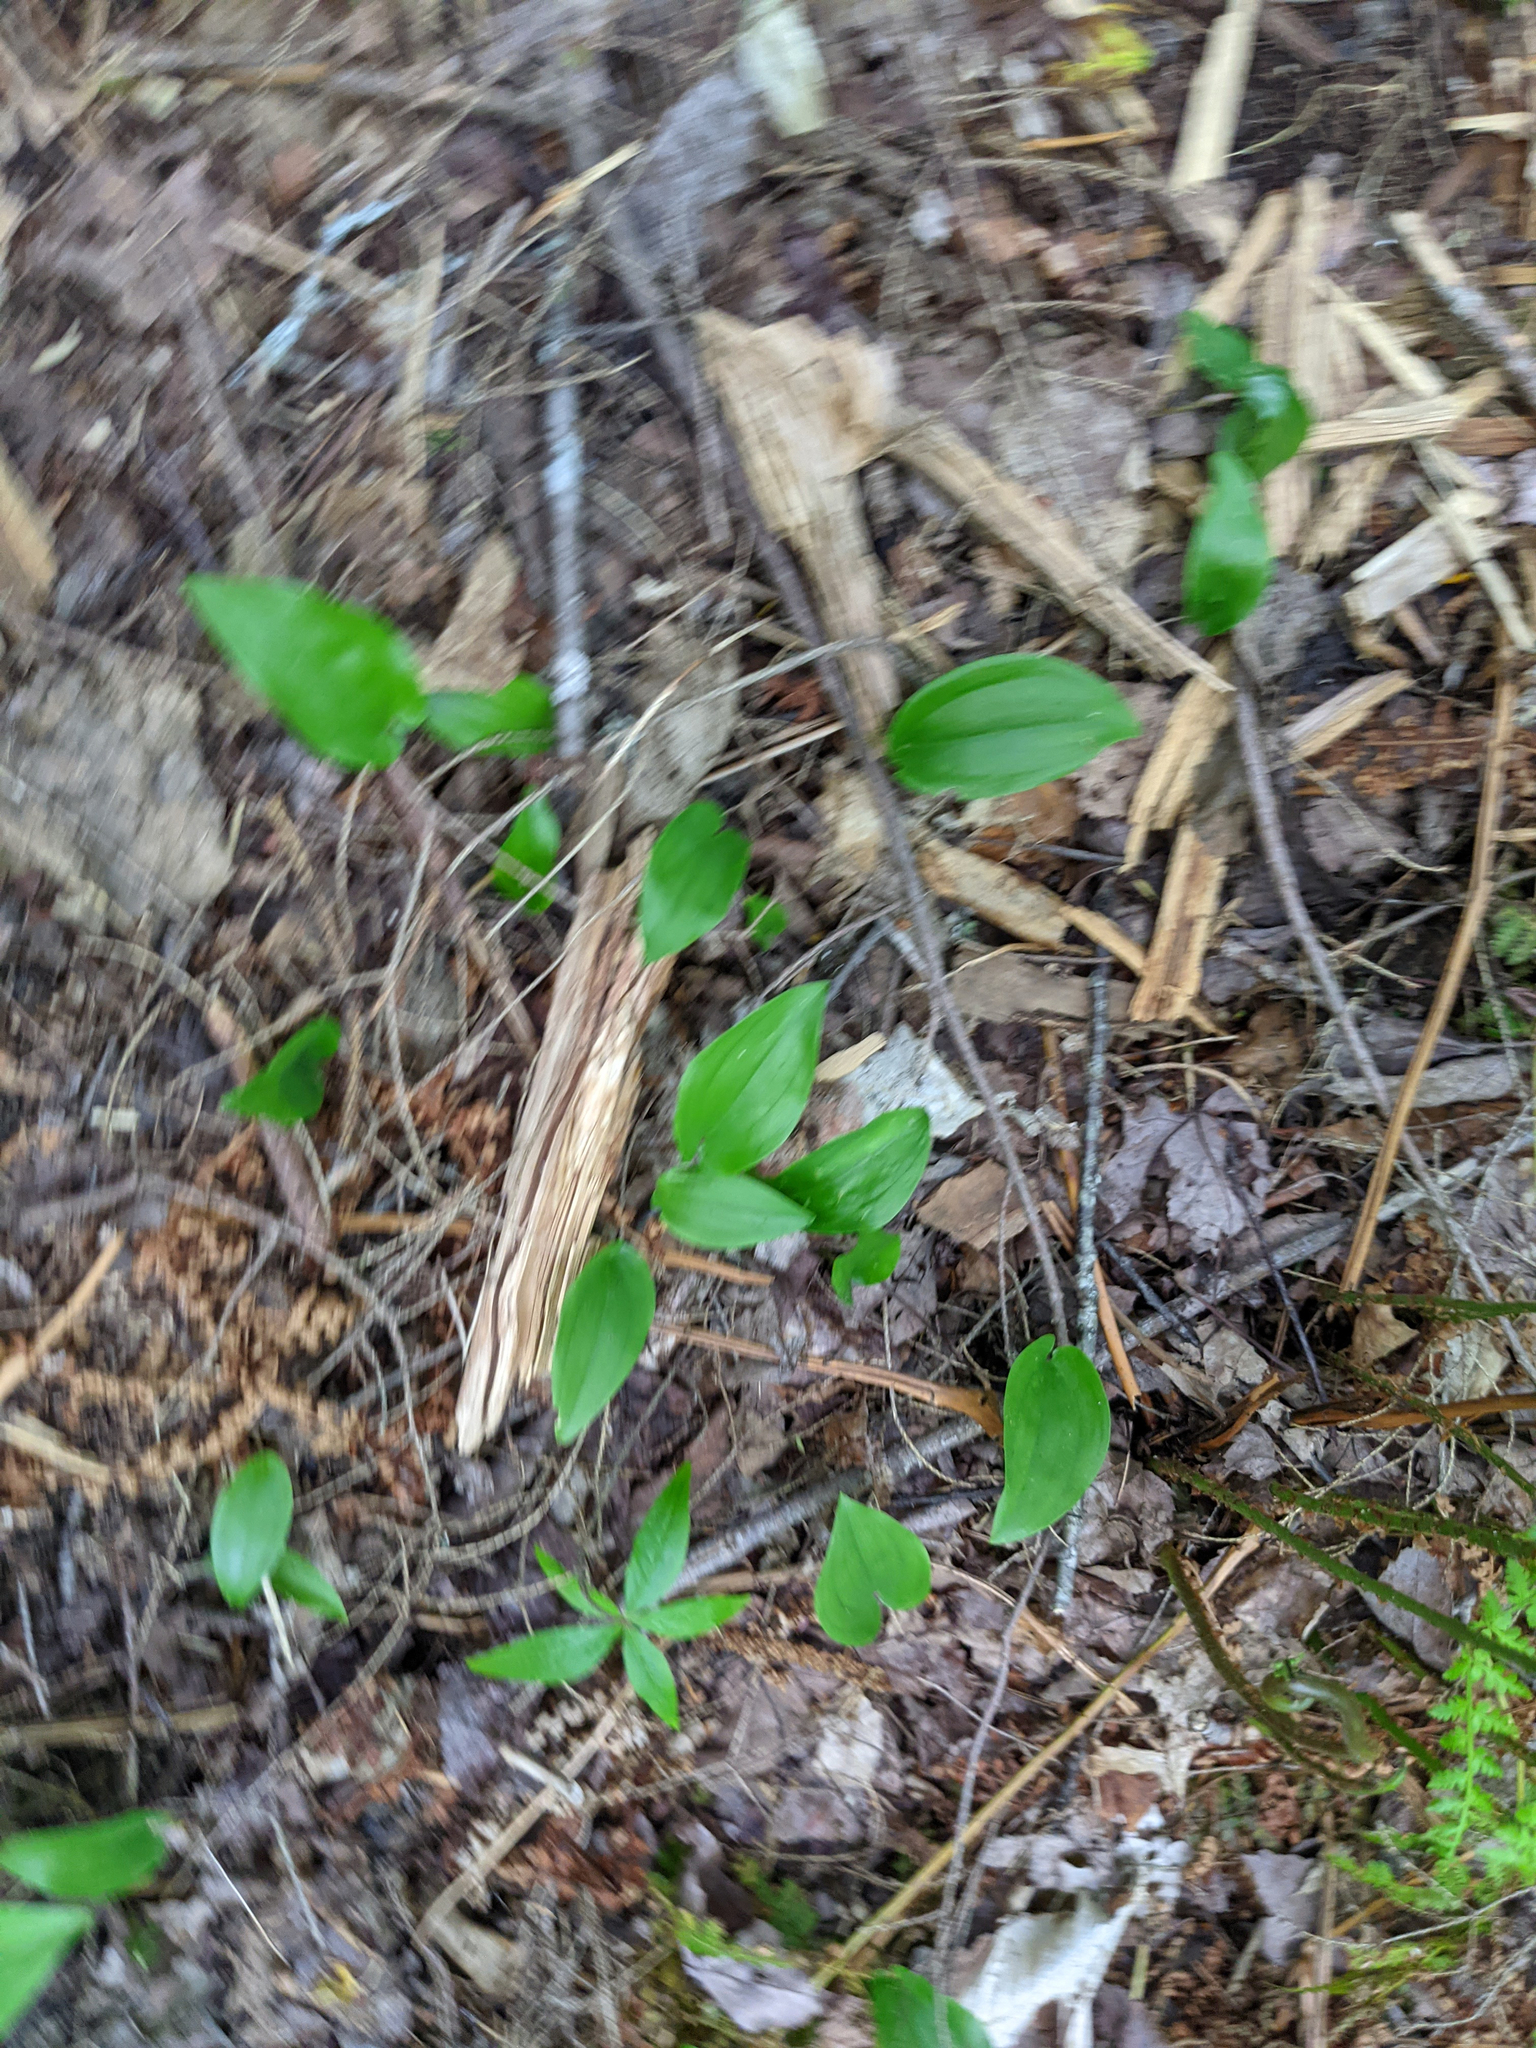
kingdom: Plantae
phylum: Tracheophyta
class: Liliopsida
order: Asparagales
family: Asparagaceae
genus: Maianthemum
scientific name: Maianthemum canadense
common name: False lily-of-the-valley
